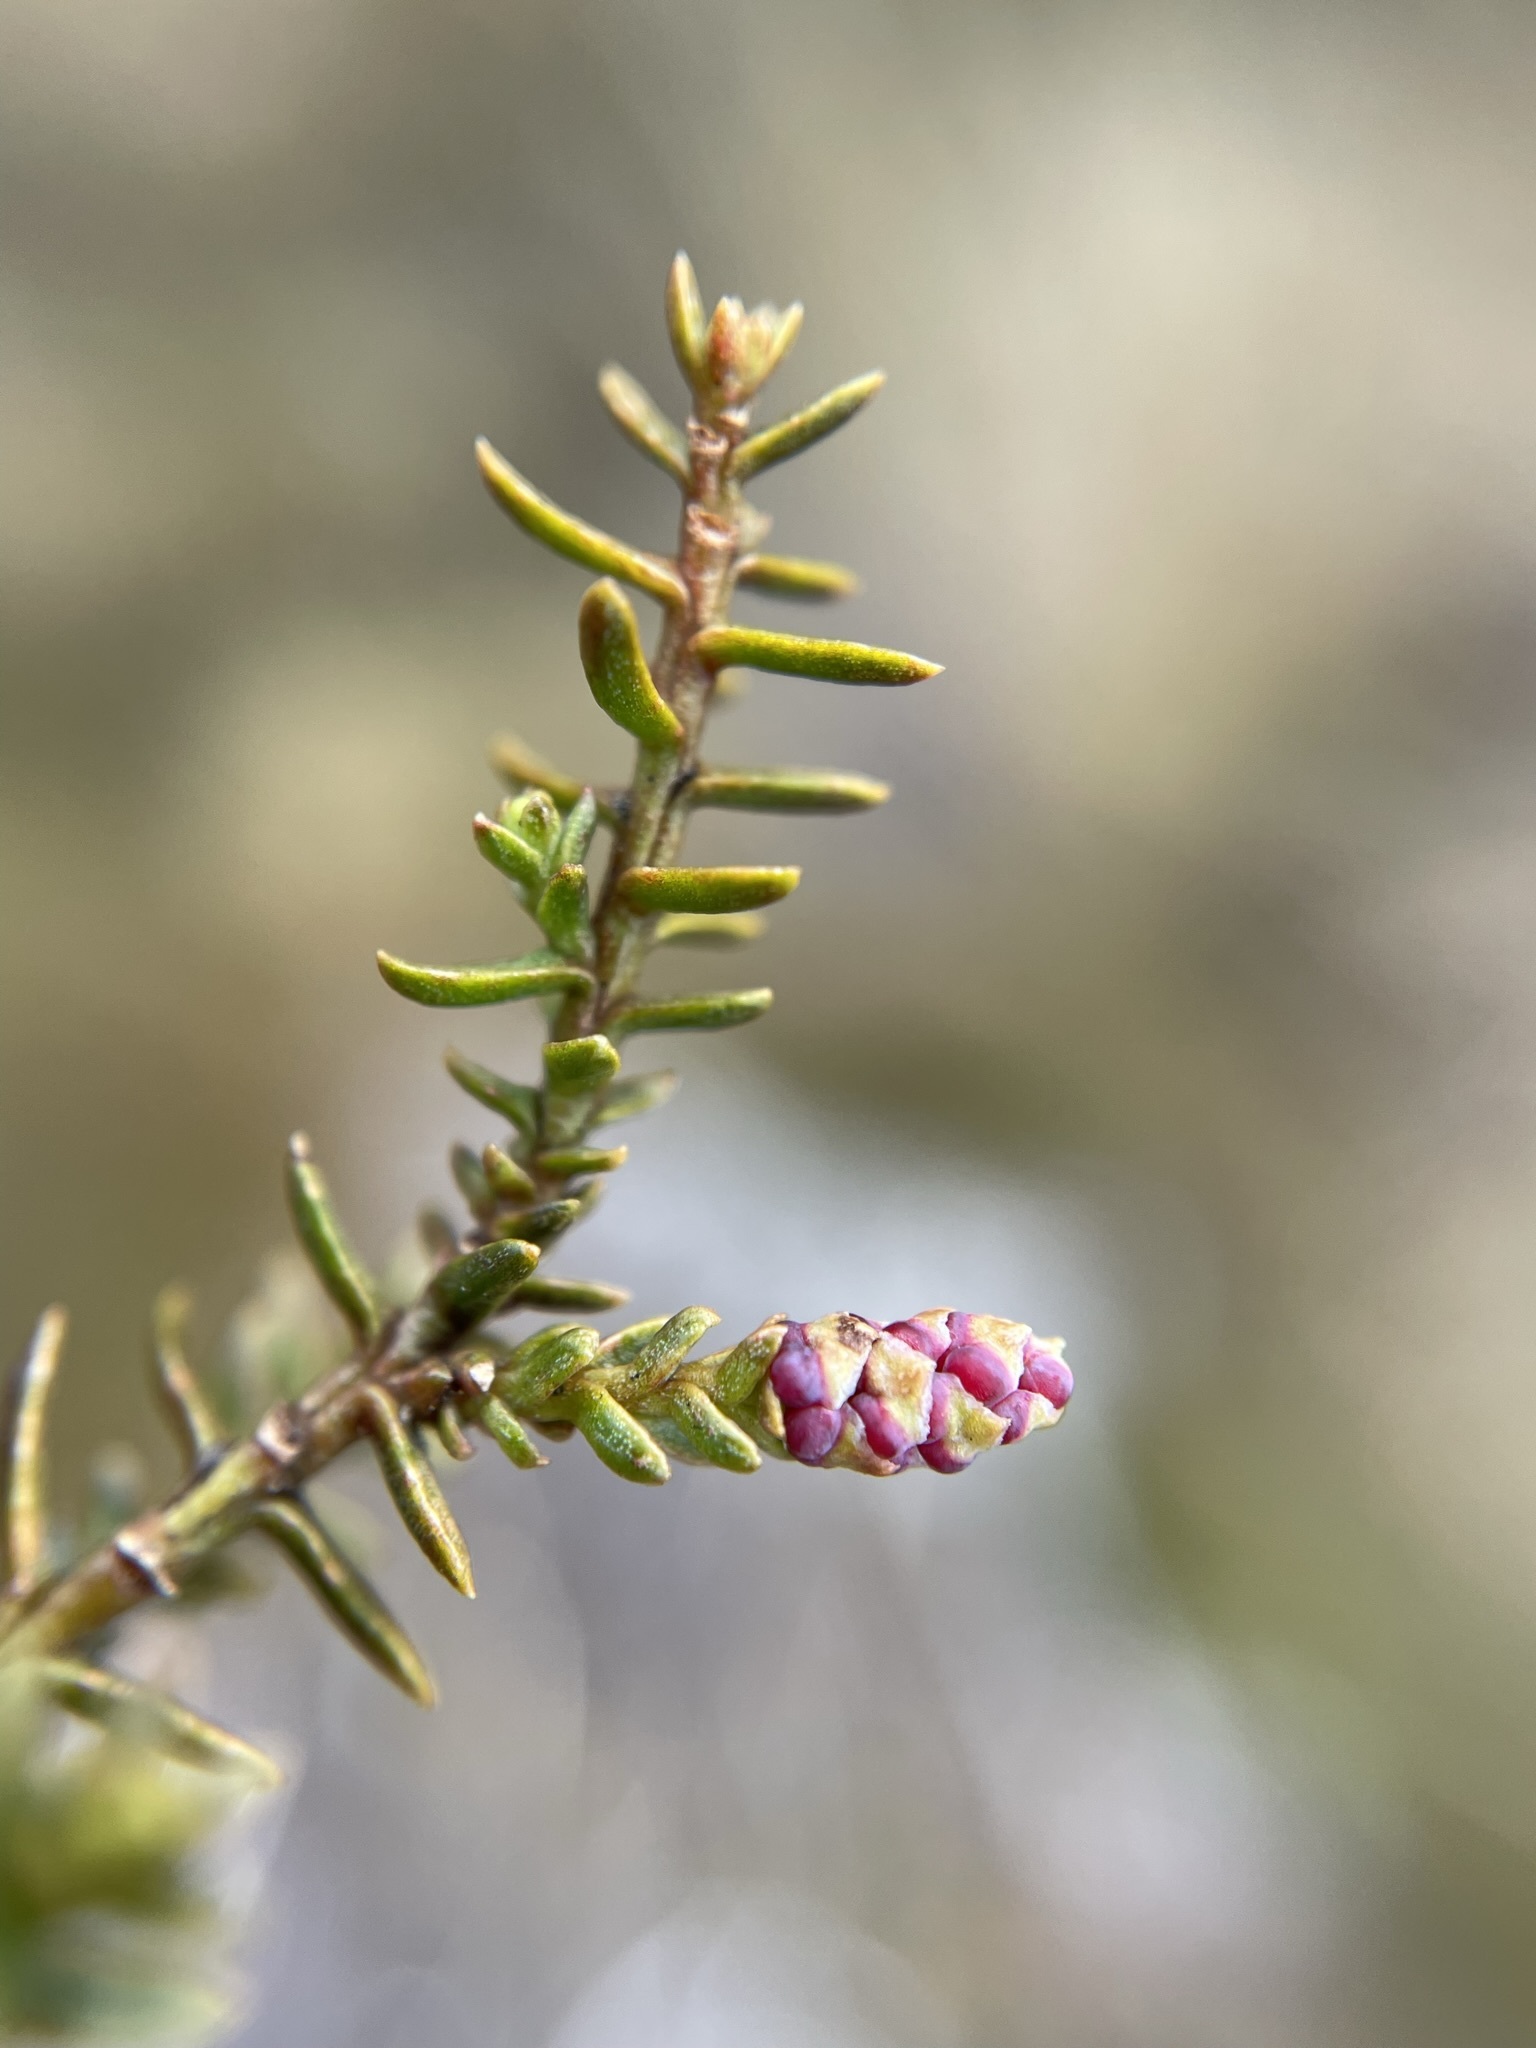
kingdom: Plantae
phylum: Tracheophyta
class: Pinopsida
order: Pinales
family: Podocarpaceae
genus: Lepidothamnus
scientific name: Lepidothamnus laxifolius
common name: Pygmy pine
